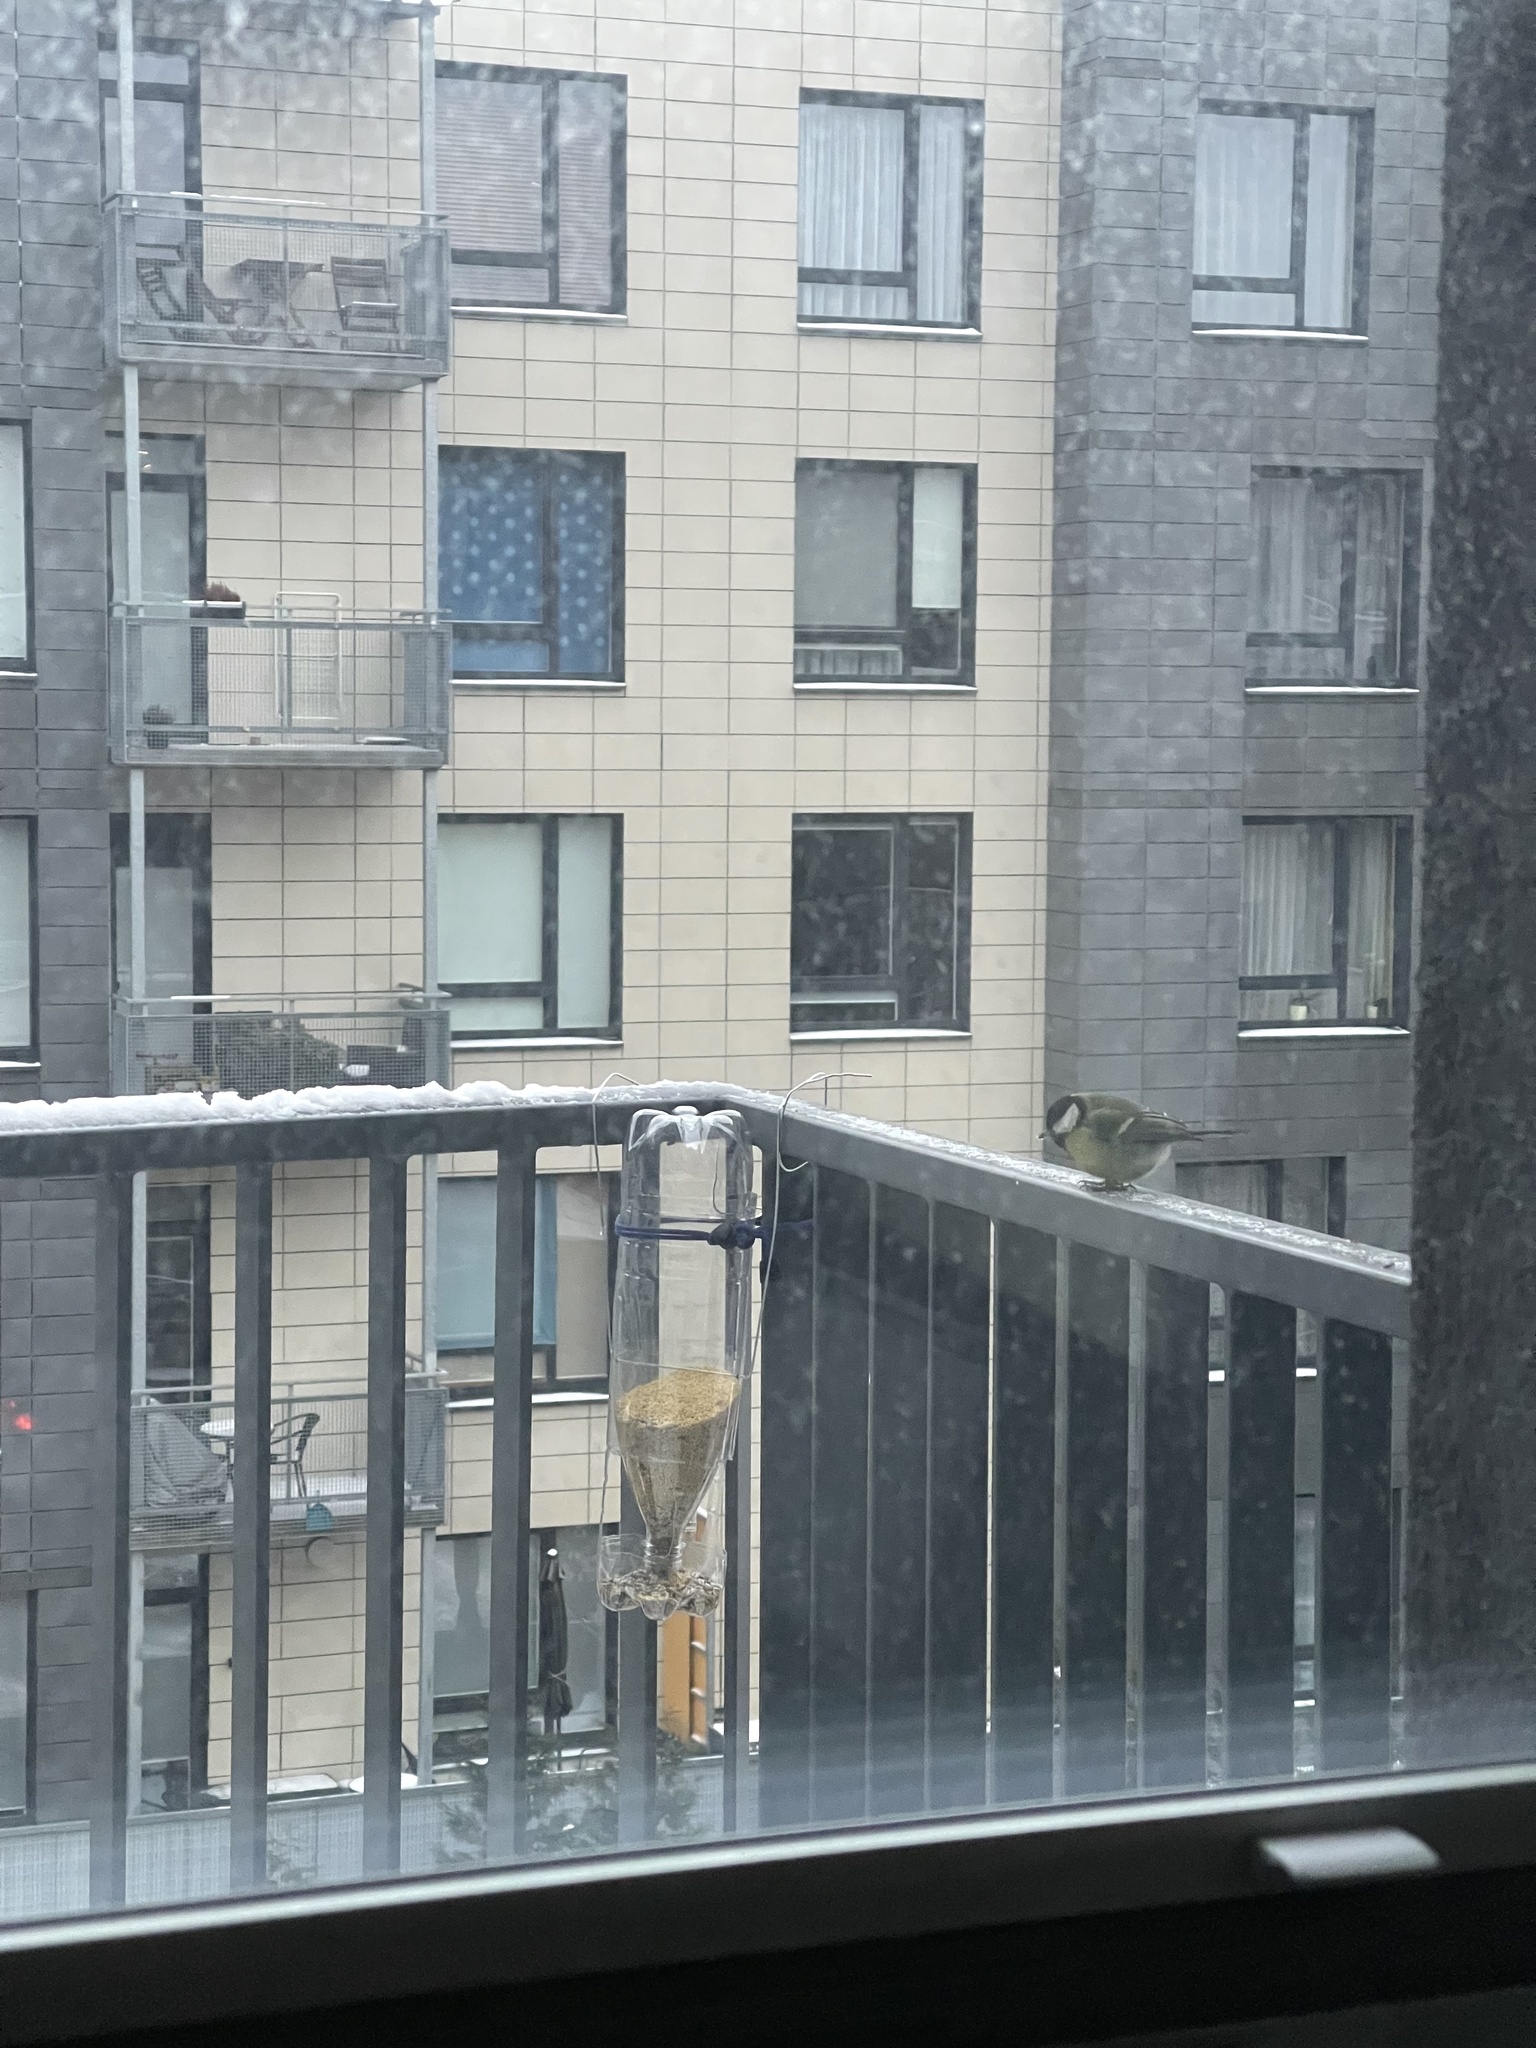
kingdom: Animalia
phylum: Chordata
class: Aves
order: Passeriformes
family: Paridae
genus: Parus
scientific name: Parus major
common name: Great tit
